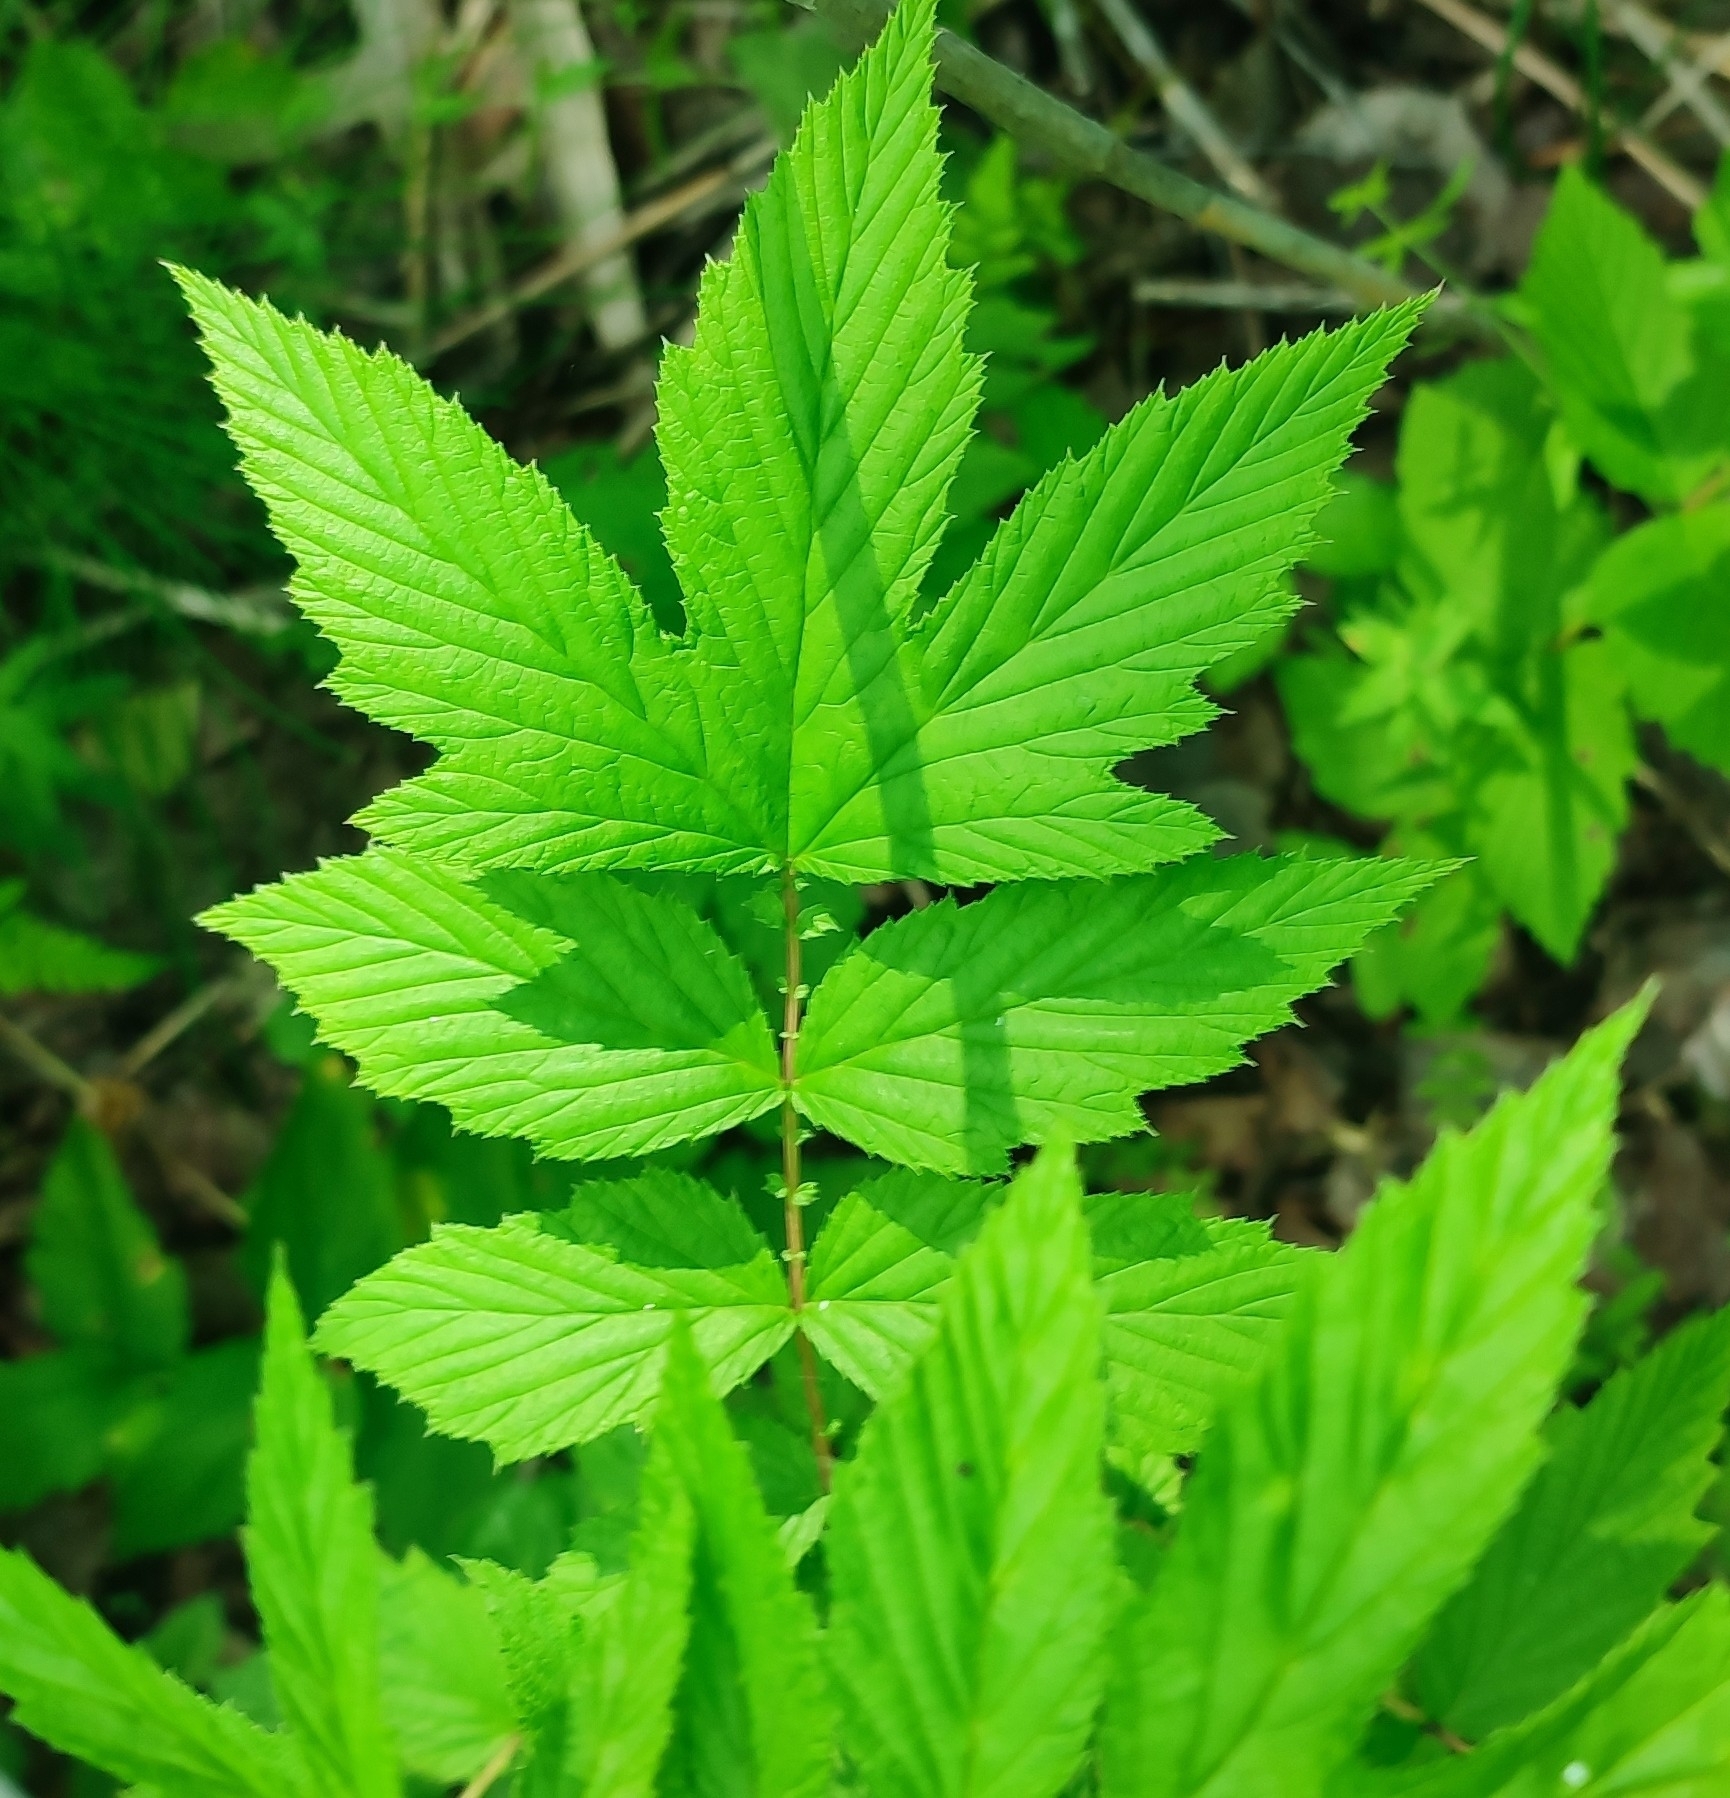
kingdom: Plantae
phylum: Tracheophyta
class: Magnoliopsida
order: Rosales
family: Rosaceae
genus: Filipendula
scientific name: Filipendula ulmaria
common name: Meadowsweet
